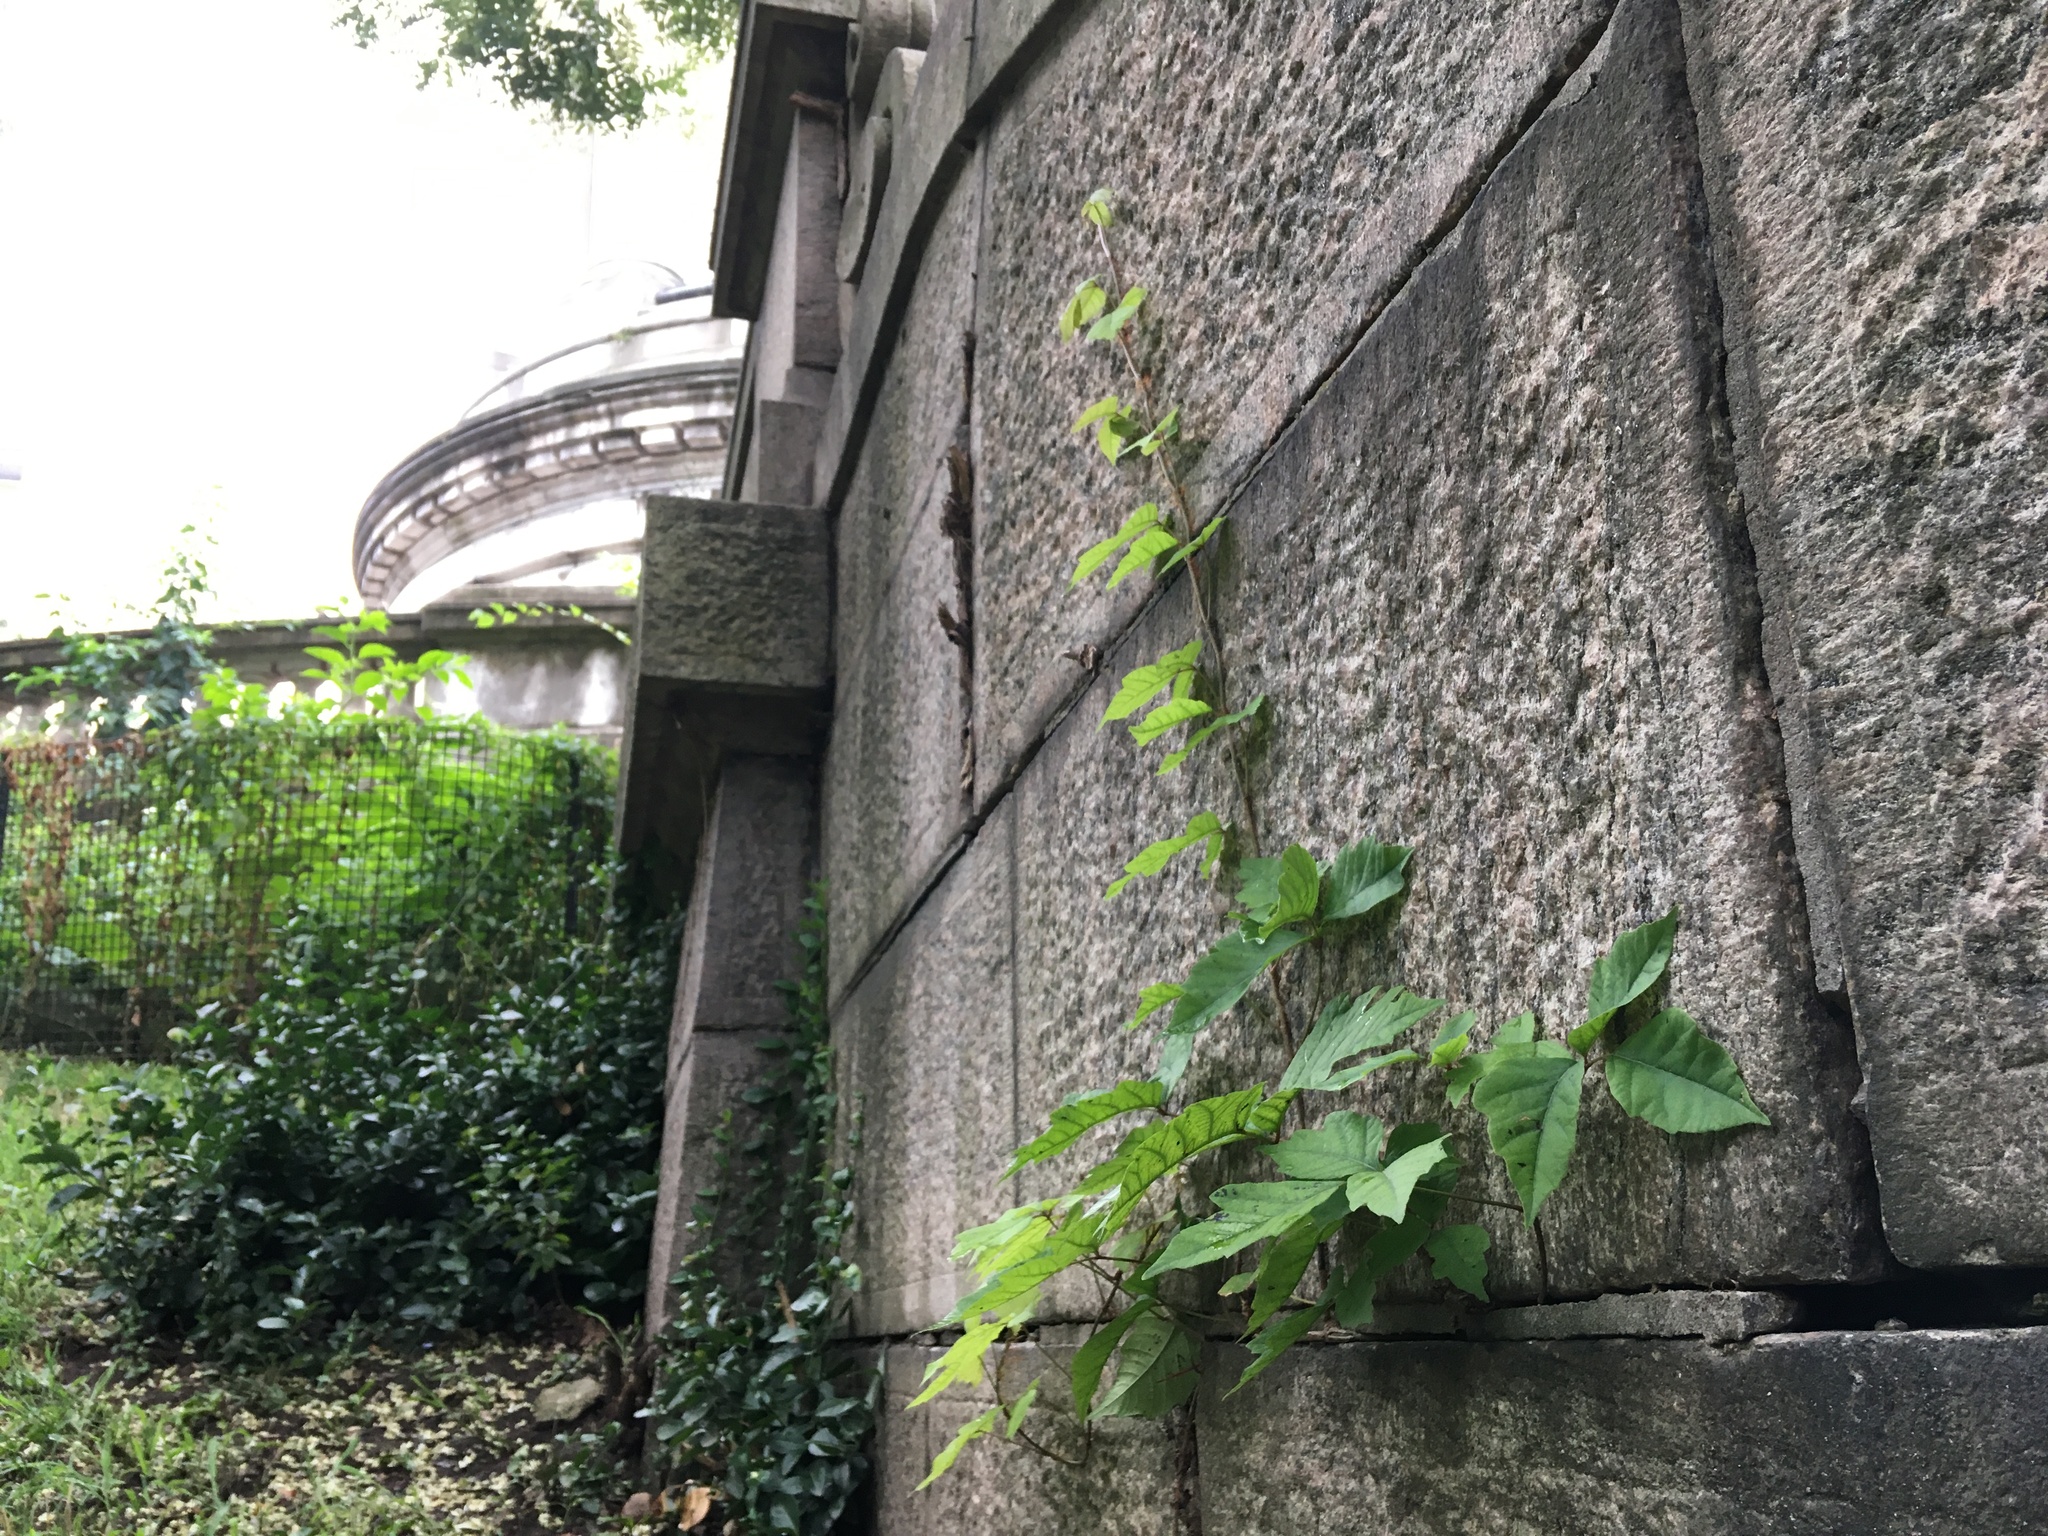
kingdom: Plantae
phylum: Tracheophyta
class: Magnoliopsida
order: Sapindales
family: Anacardiaceae
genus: Toxicodendron
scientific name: Toxicodendron radicans
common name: Poison ivy
